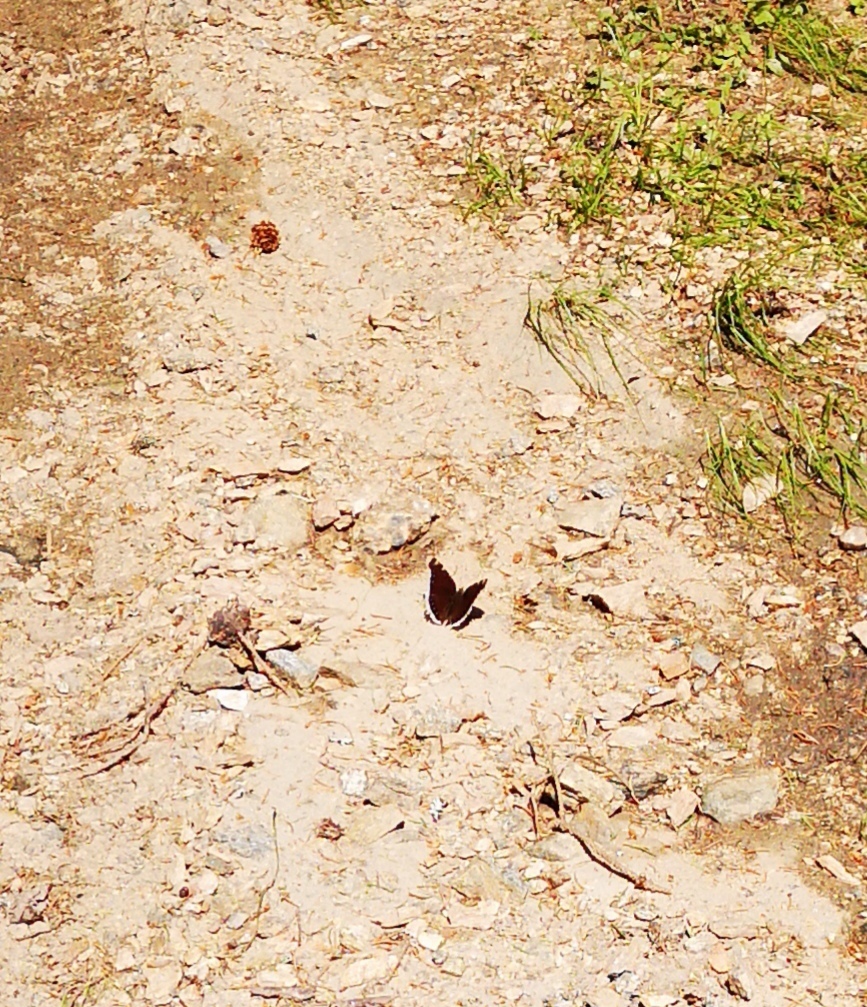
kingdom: Animalia
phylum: Arthropoda
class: Insecta
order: Lepidoptera
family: Nymphalidae
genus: Nymphalis
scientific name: Nymphalis antiopa
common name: Camberwell beauty
